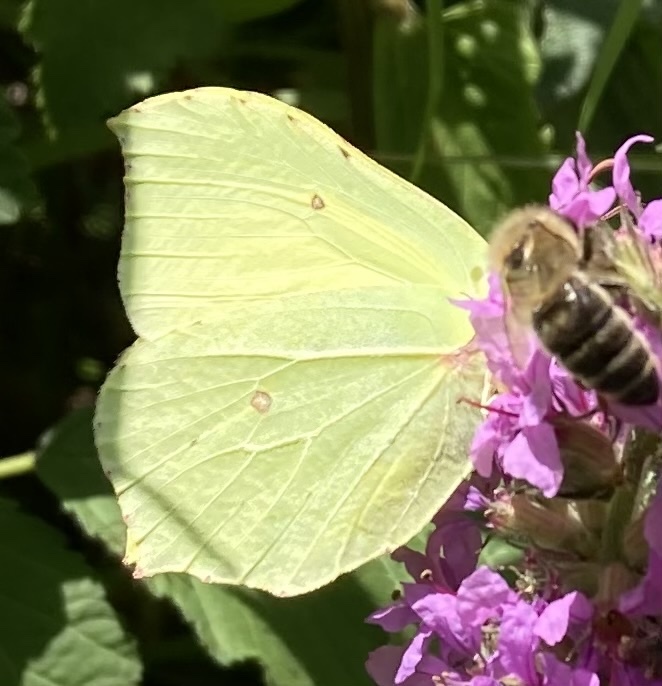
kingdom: Animalia
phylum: Arthropoda
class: Insecta
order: Lepidoptera
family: Pieridae
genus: Gonepteryx
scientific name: Gonepteryx rhamni
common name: Brimstone
